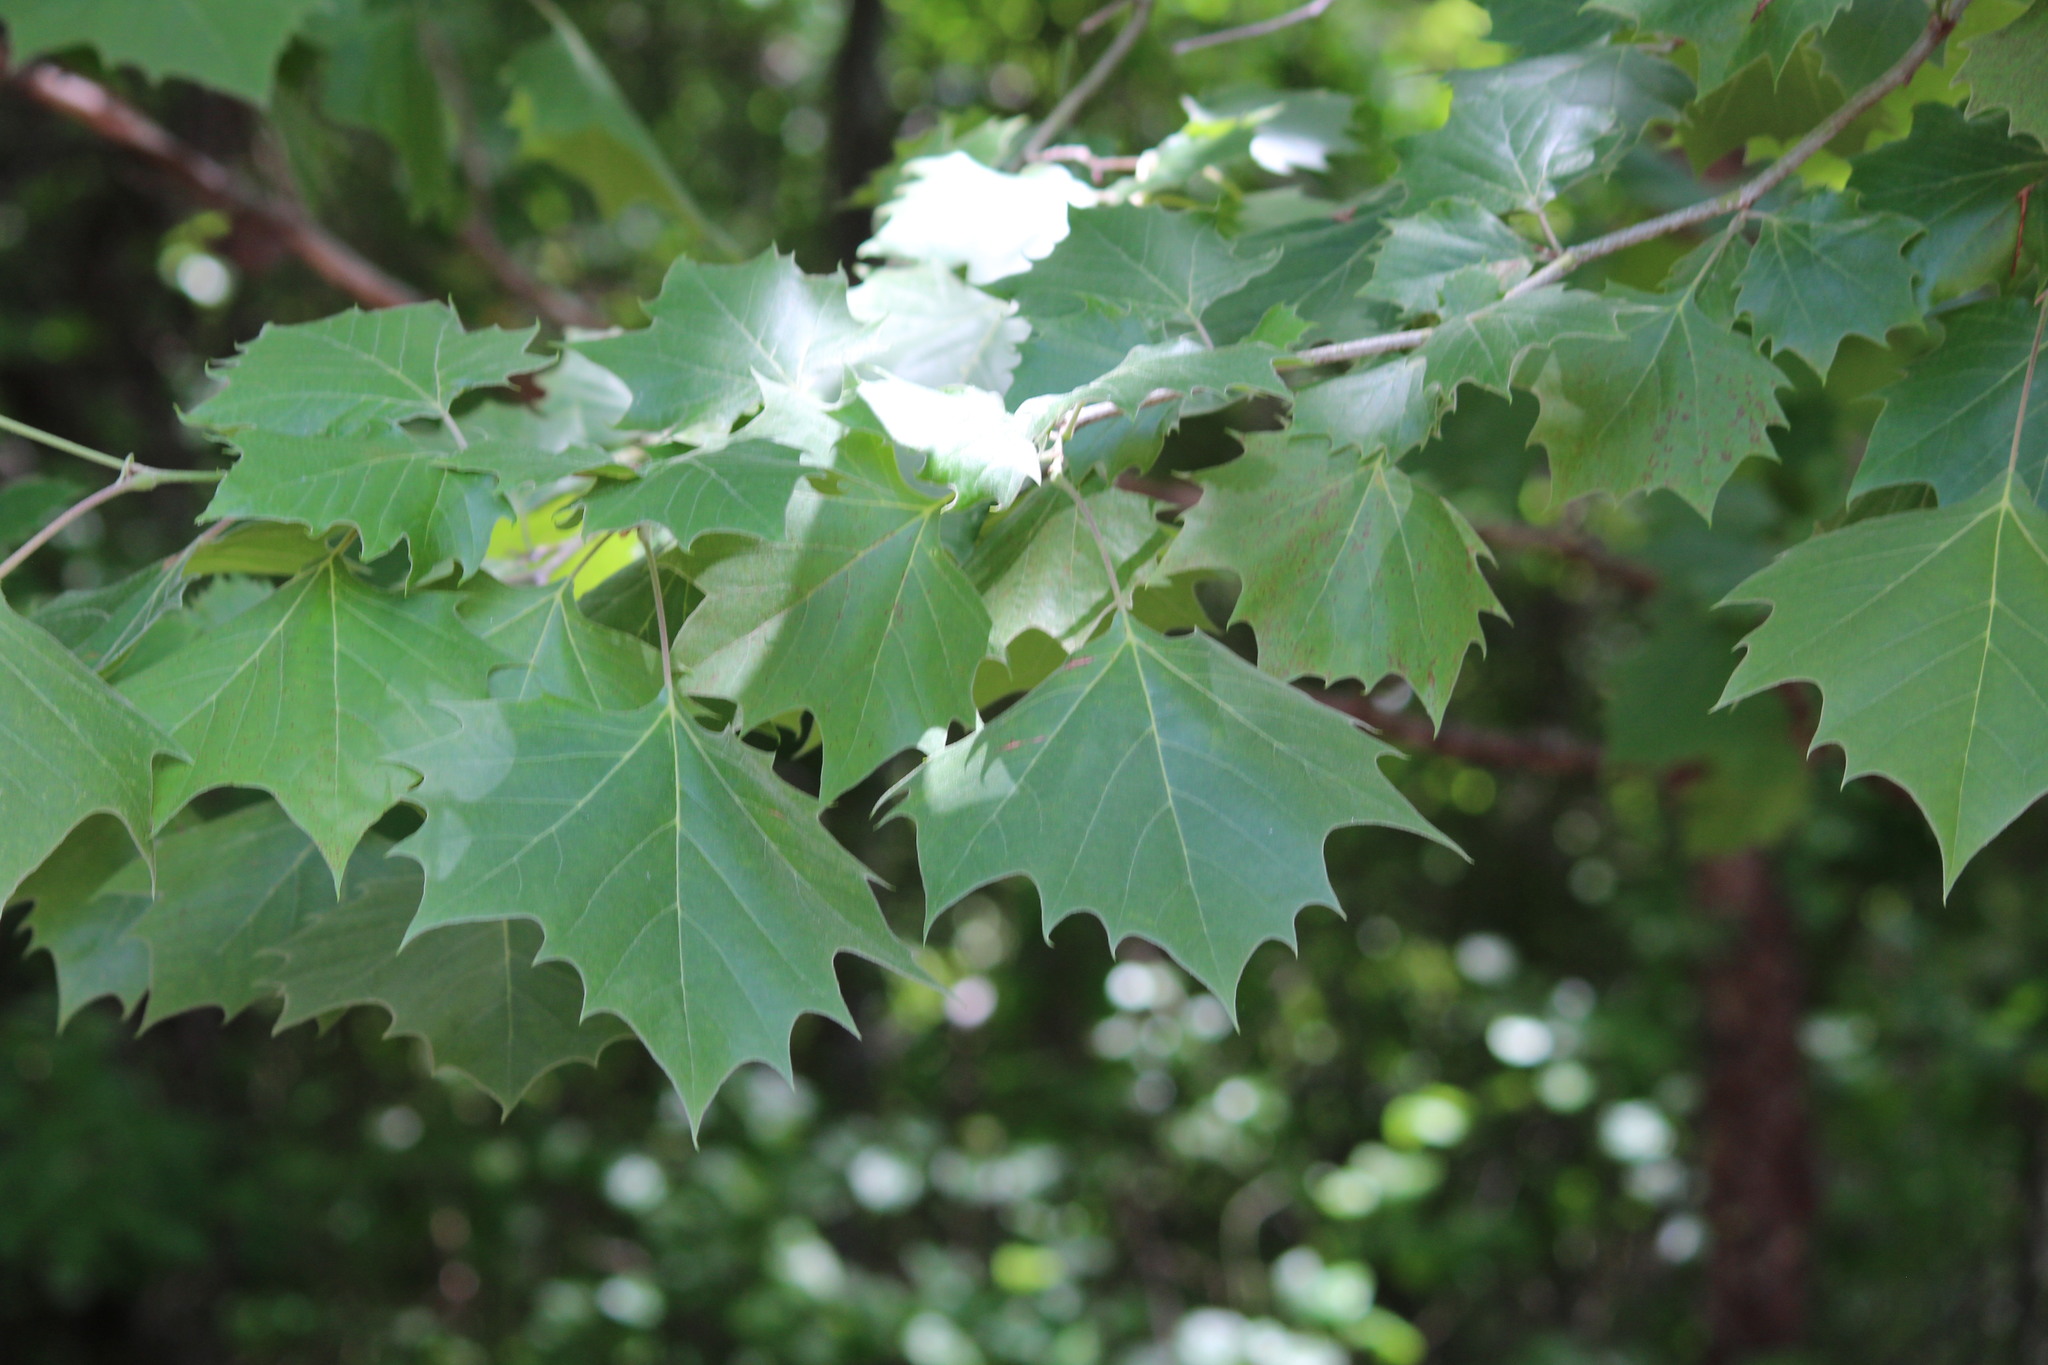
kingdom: Plantae
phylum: Tracheophyta
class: Magnoliopsida
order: Proteales
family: Platanaceae
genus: Platanus
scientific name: Platanus occidentalis
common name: American sycamore
